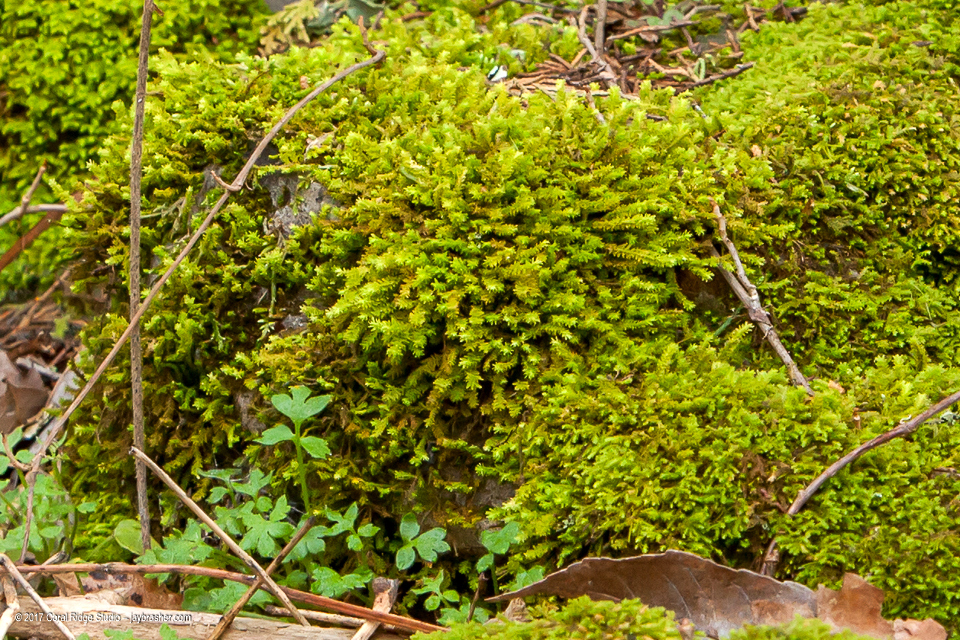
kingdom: Plantae
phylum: Bryophyta
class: Bryopsida
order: Hypnales
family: Anomodontaceae
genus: Anomodon
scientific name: Anomodon minor
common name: Blunt-leaved anomodon
